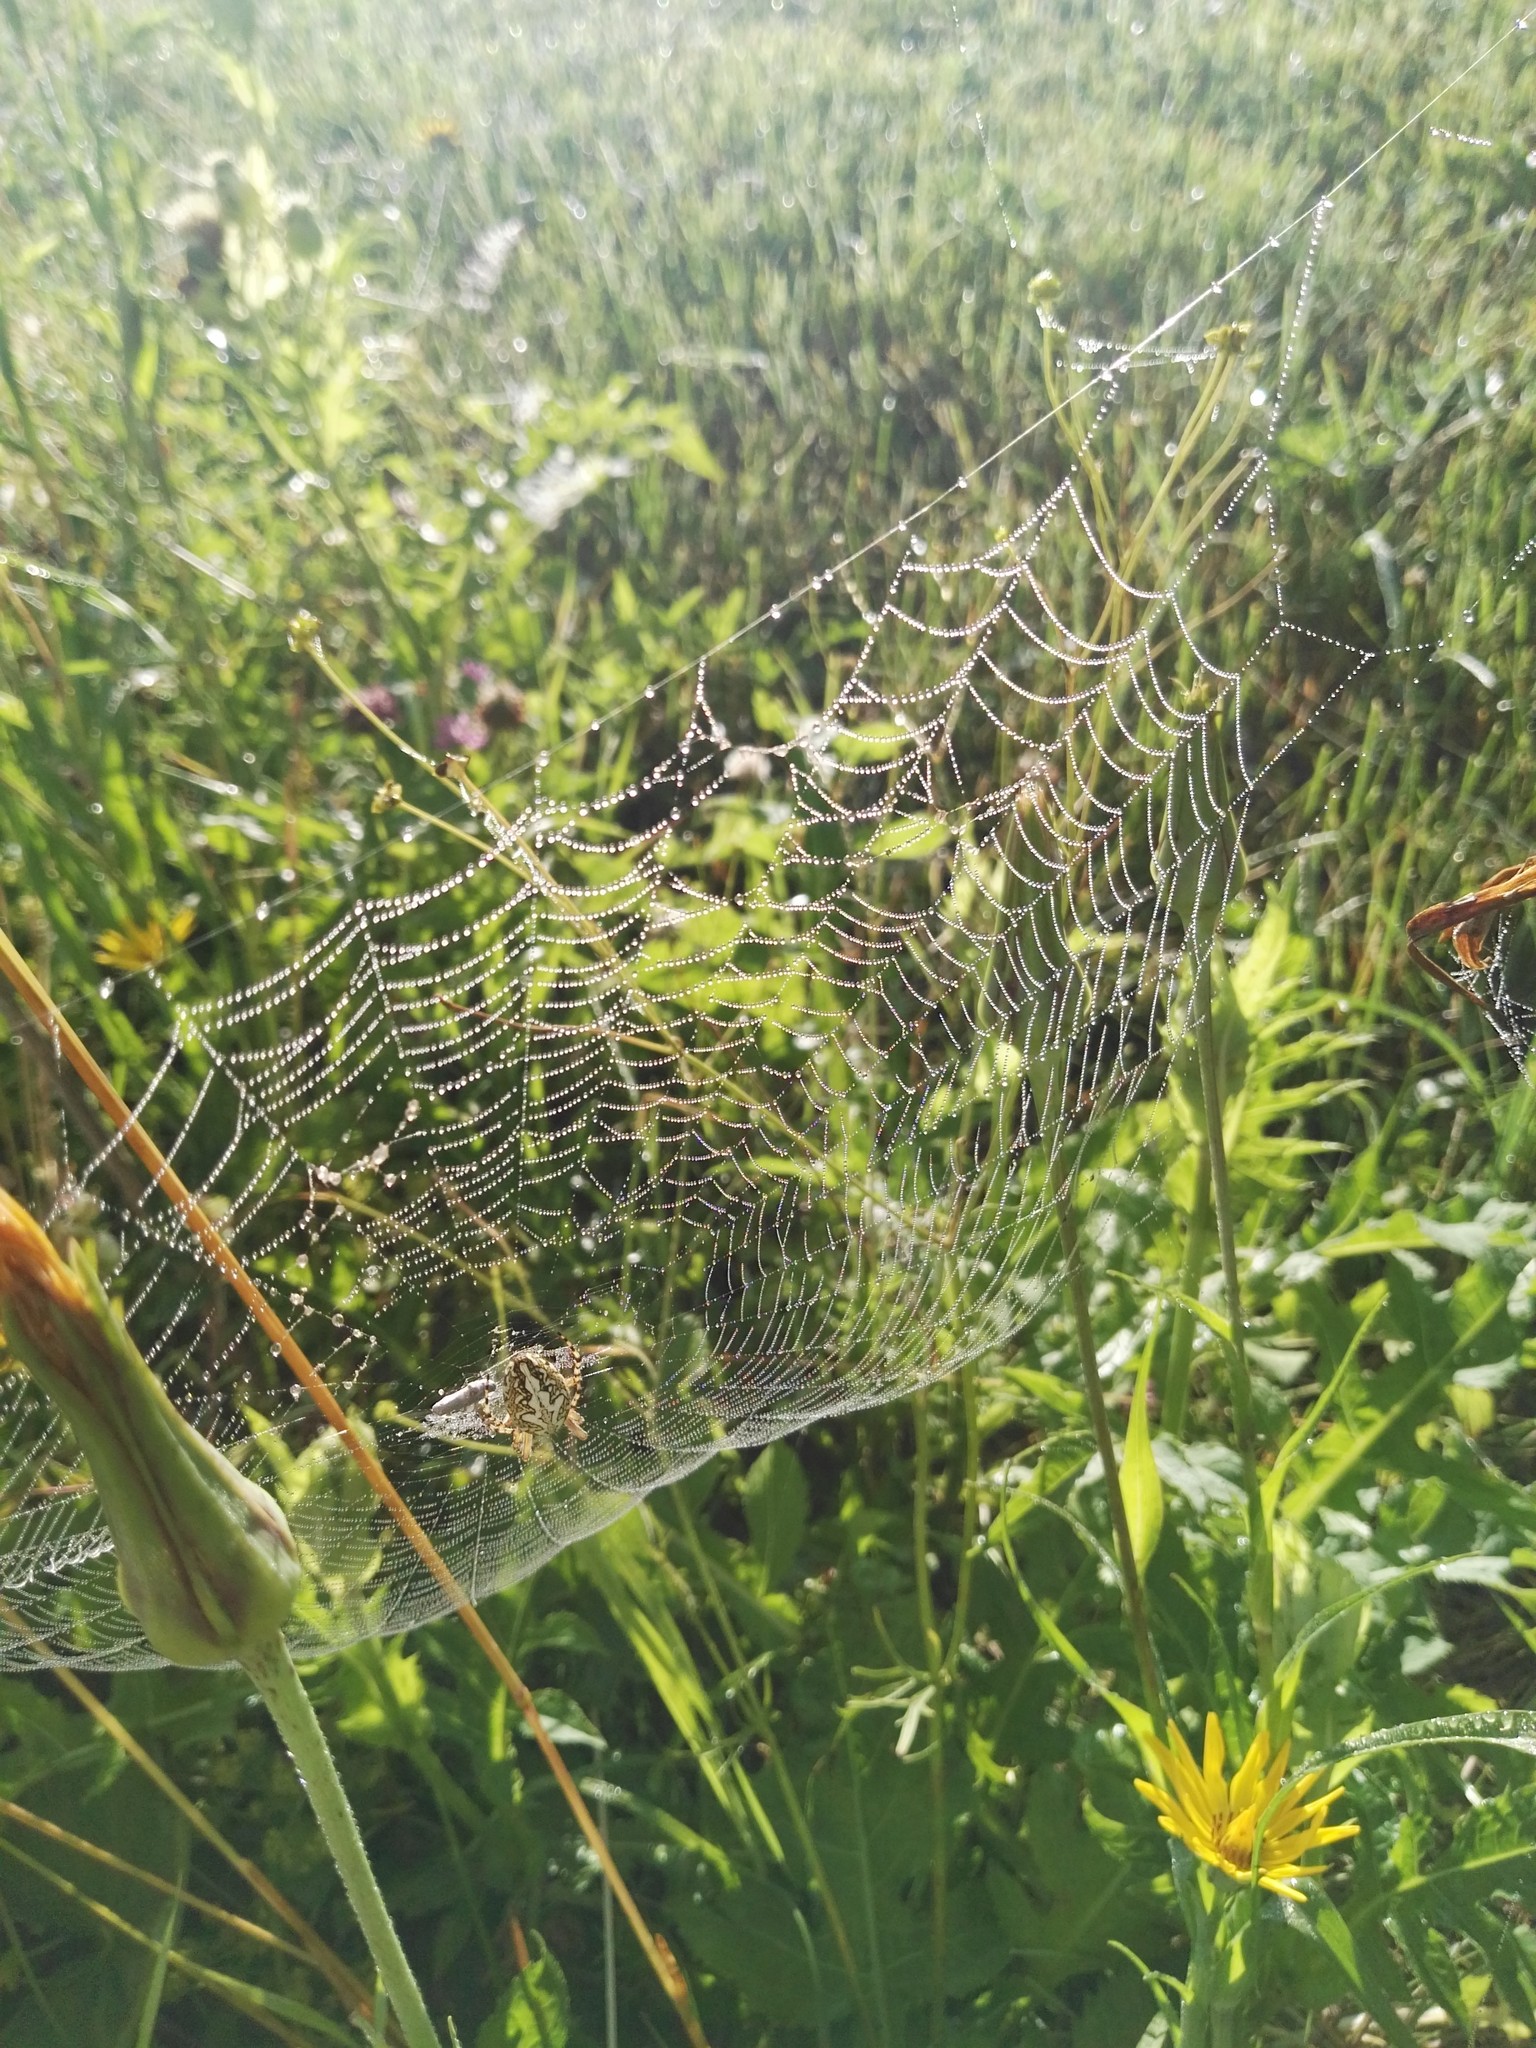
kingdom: Animalia
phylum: Arthropoda
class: Arachnida
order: Araneae
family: Araneidae
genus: Aculepeira
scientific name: Aculepeira ceropegia
